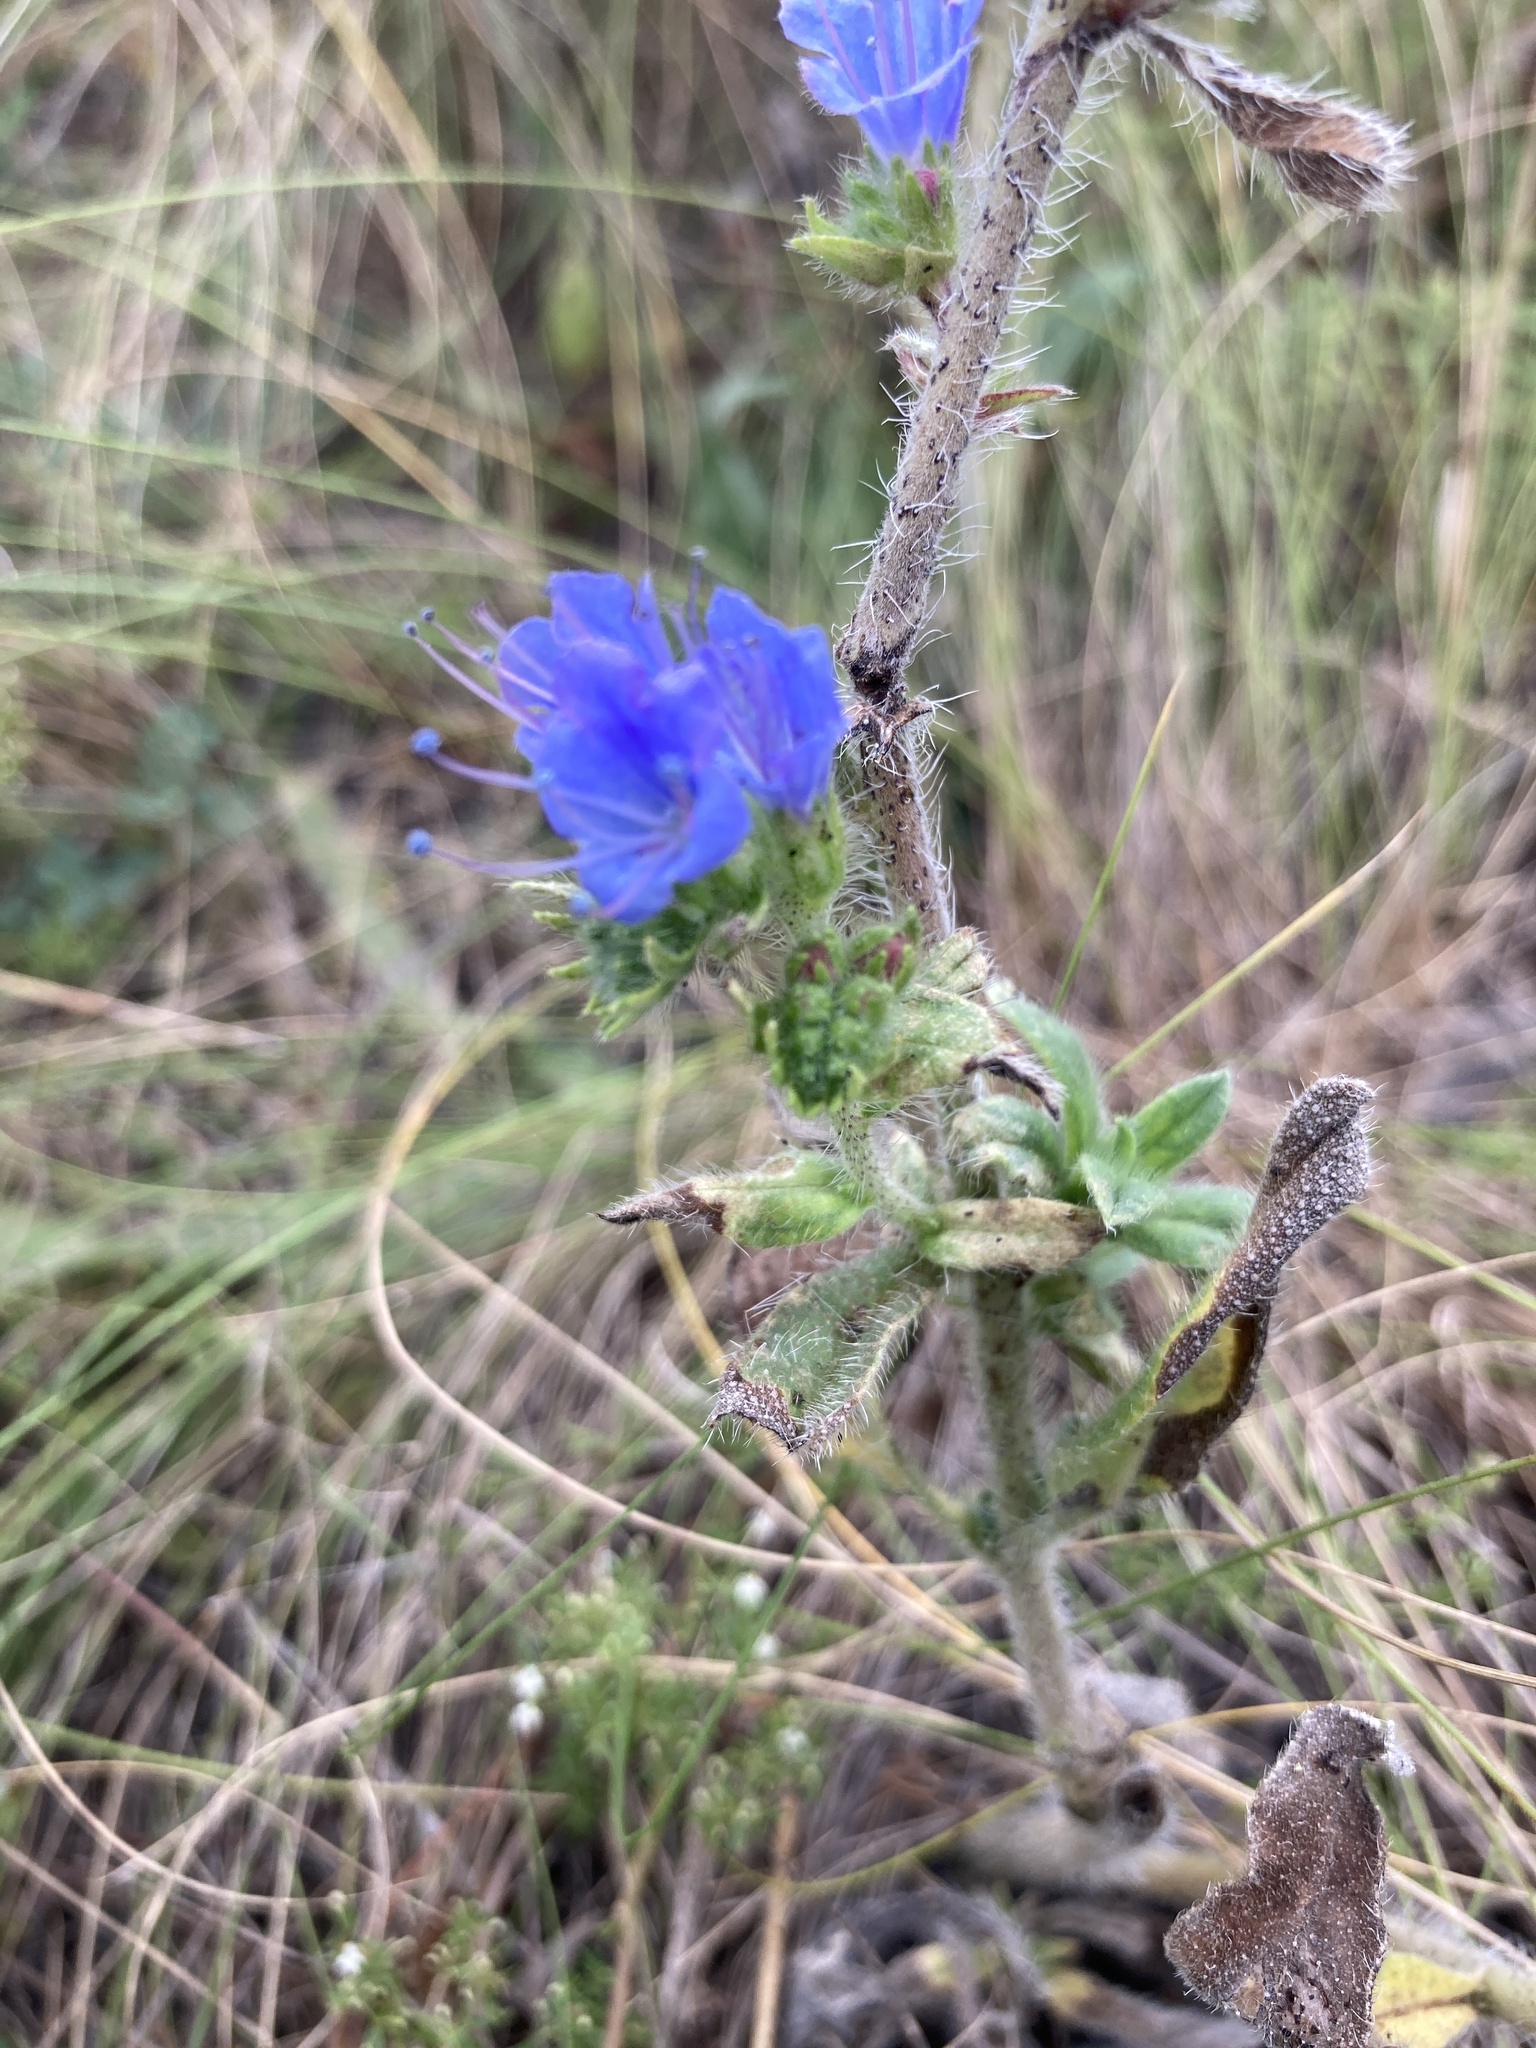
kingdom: Plantae
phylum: Tracheophyta
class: Magnoliopsida
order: Boraginales
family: Boraginaceae
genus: Echium
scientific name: Echium vulgare
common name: Common viper's bugloss
